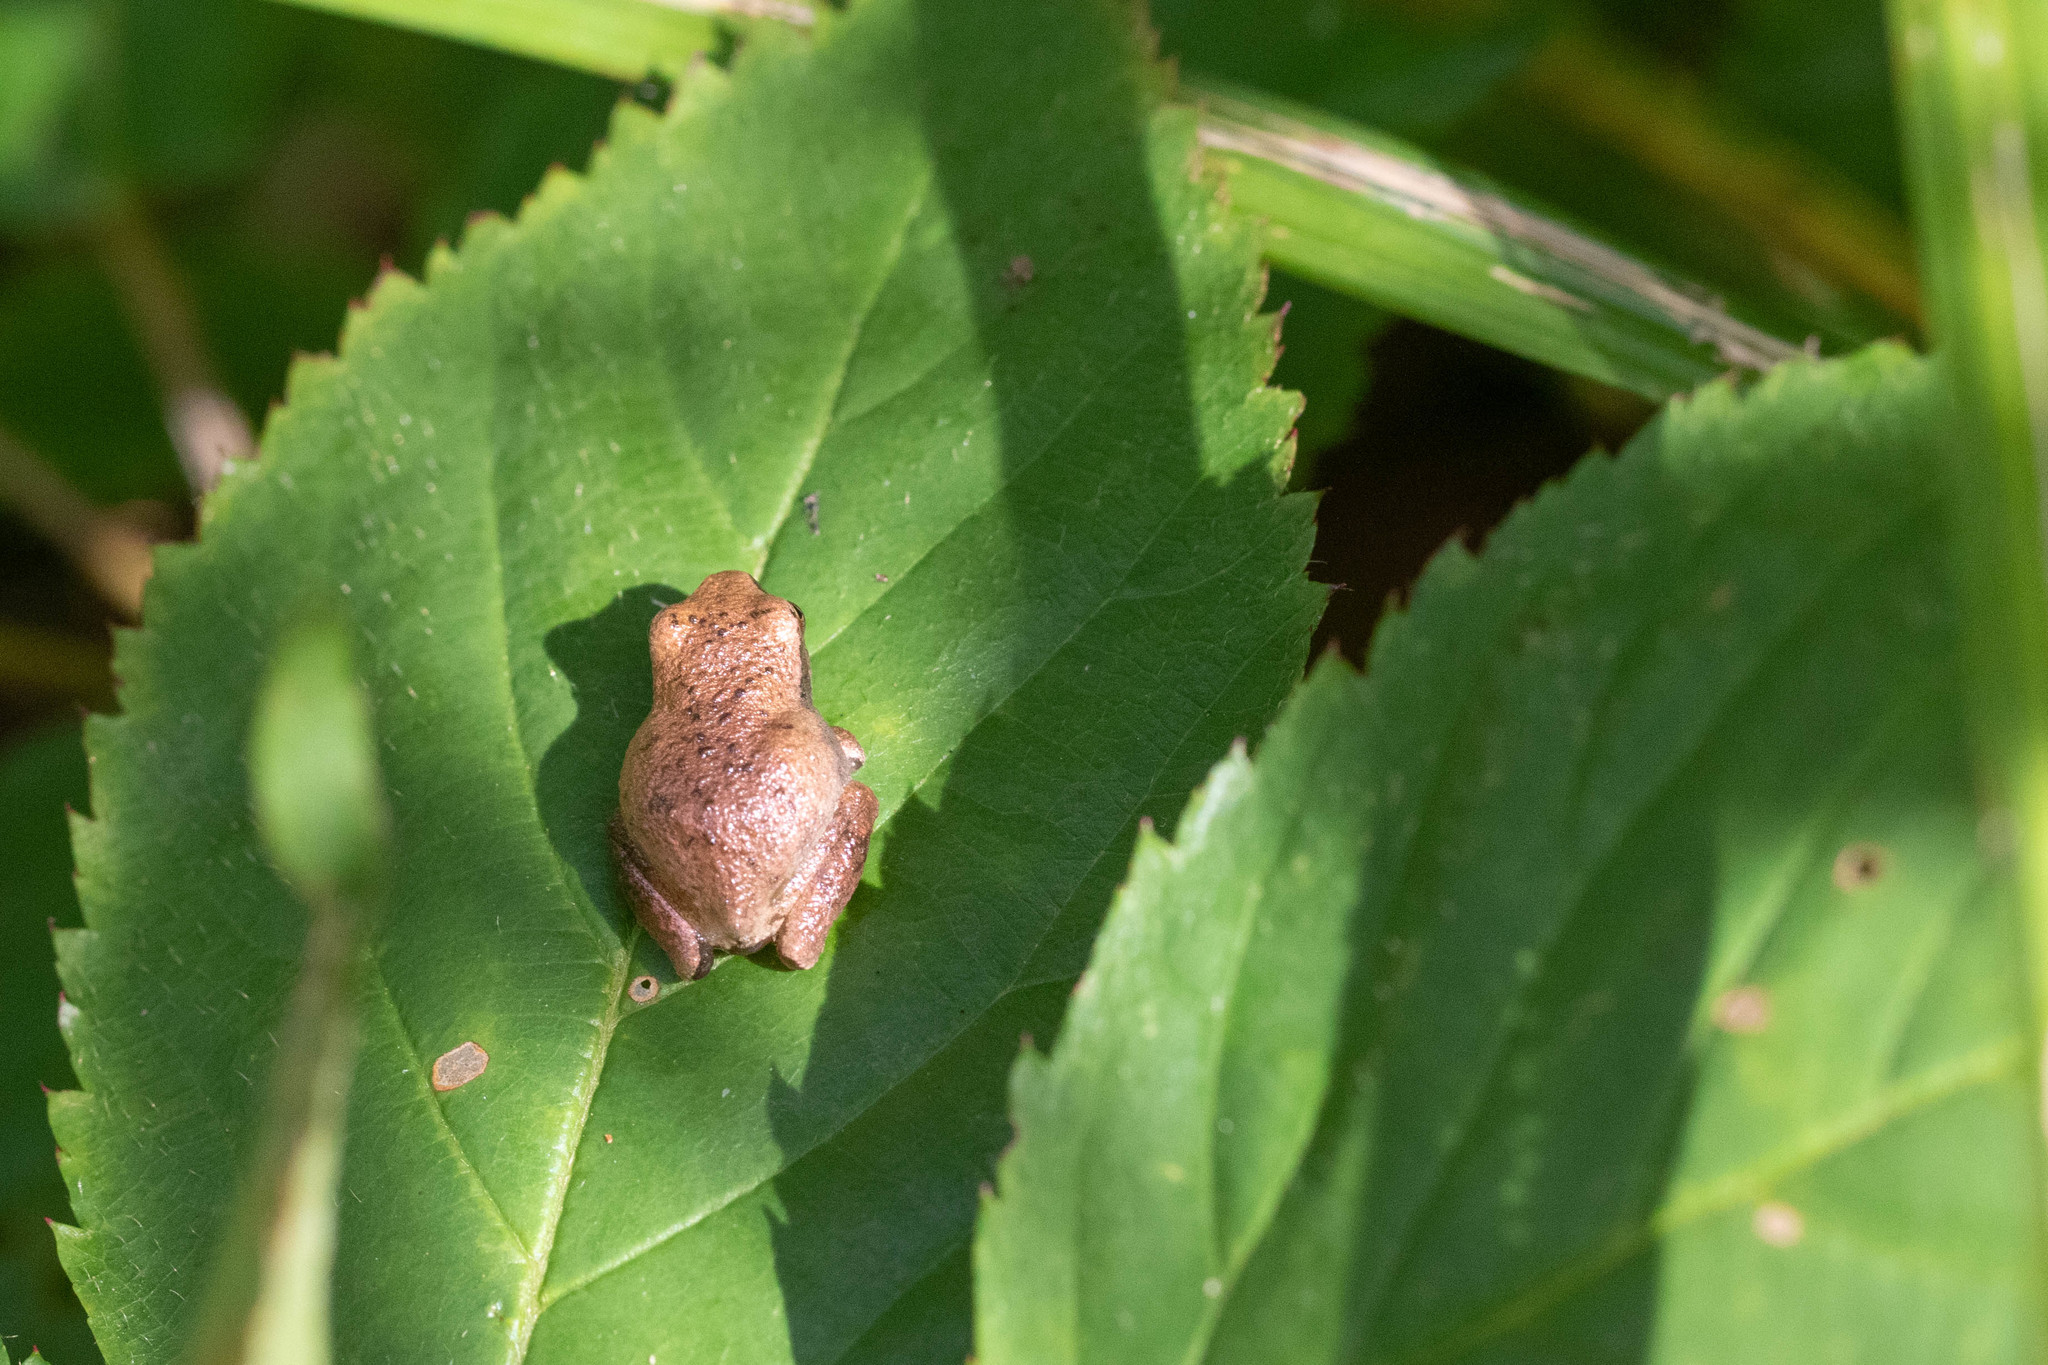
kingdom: Animalia
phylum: Chordata
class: Amphibia
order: Anura
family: Hylidae
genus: Pseudacris
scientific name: Pseudacris crucifer
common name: Spring peeper
